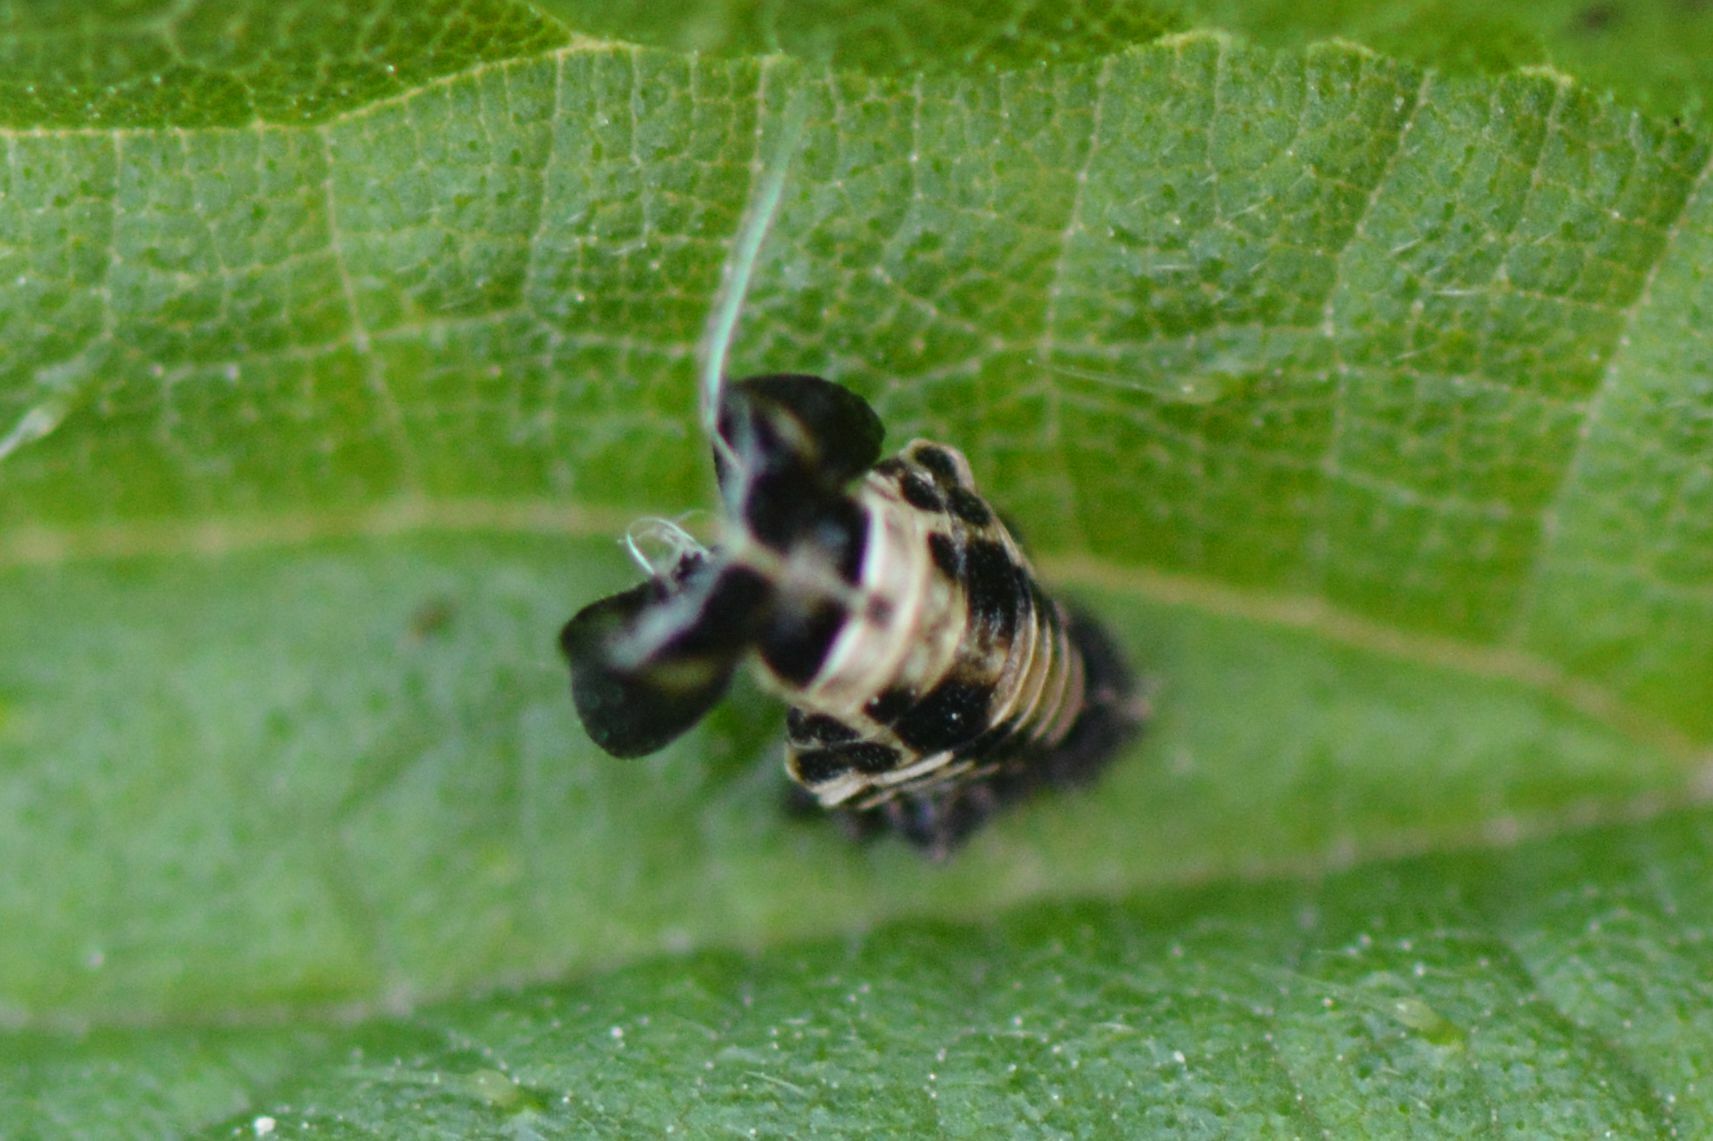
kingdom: Animalia
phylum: Arthropoda
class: Insecta
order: Coleoptera
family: Coccinellidae
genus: Adalia
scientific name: Adalia decempunctata
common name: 10-spot ladybird
